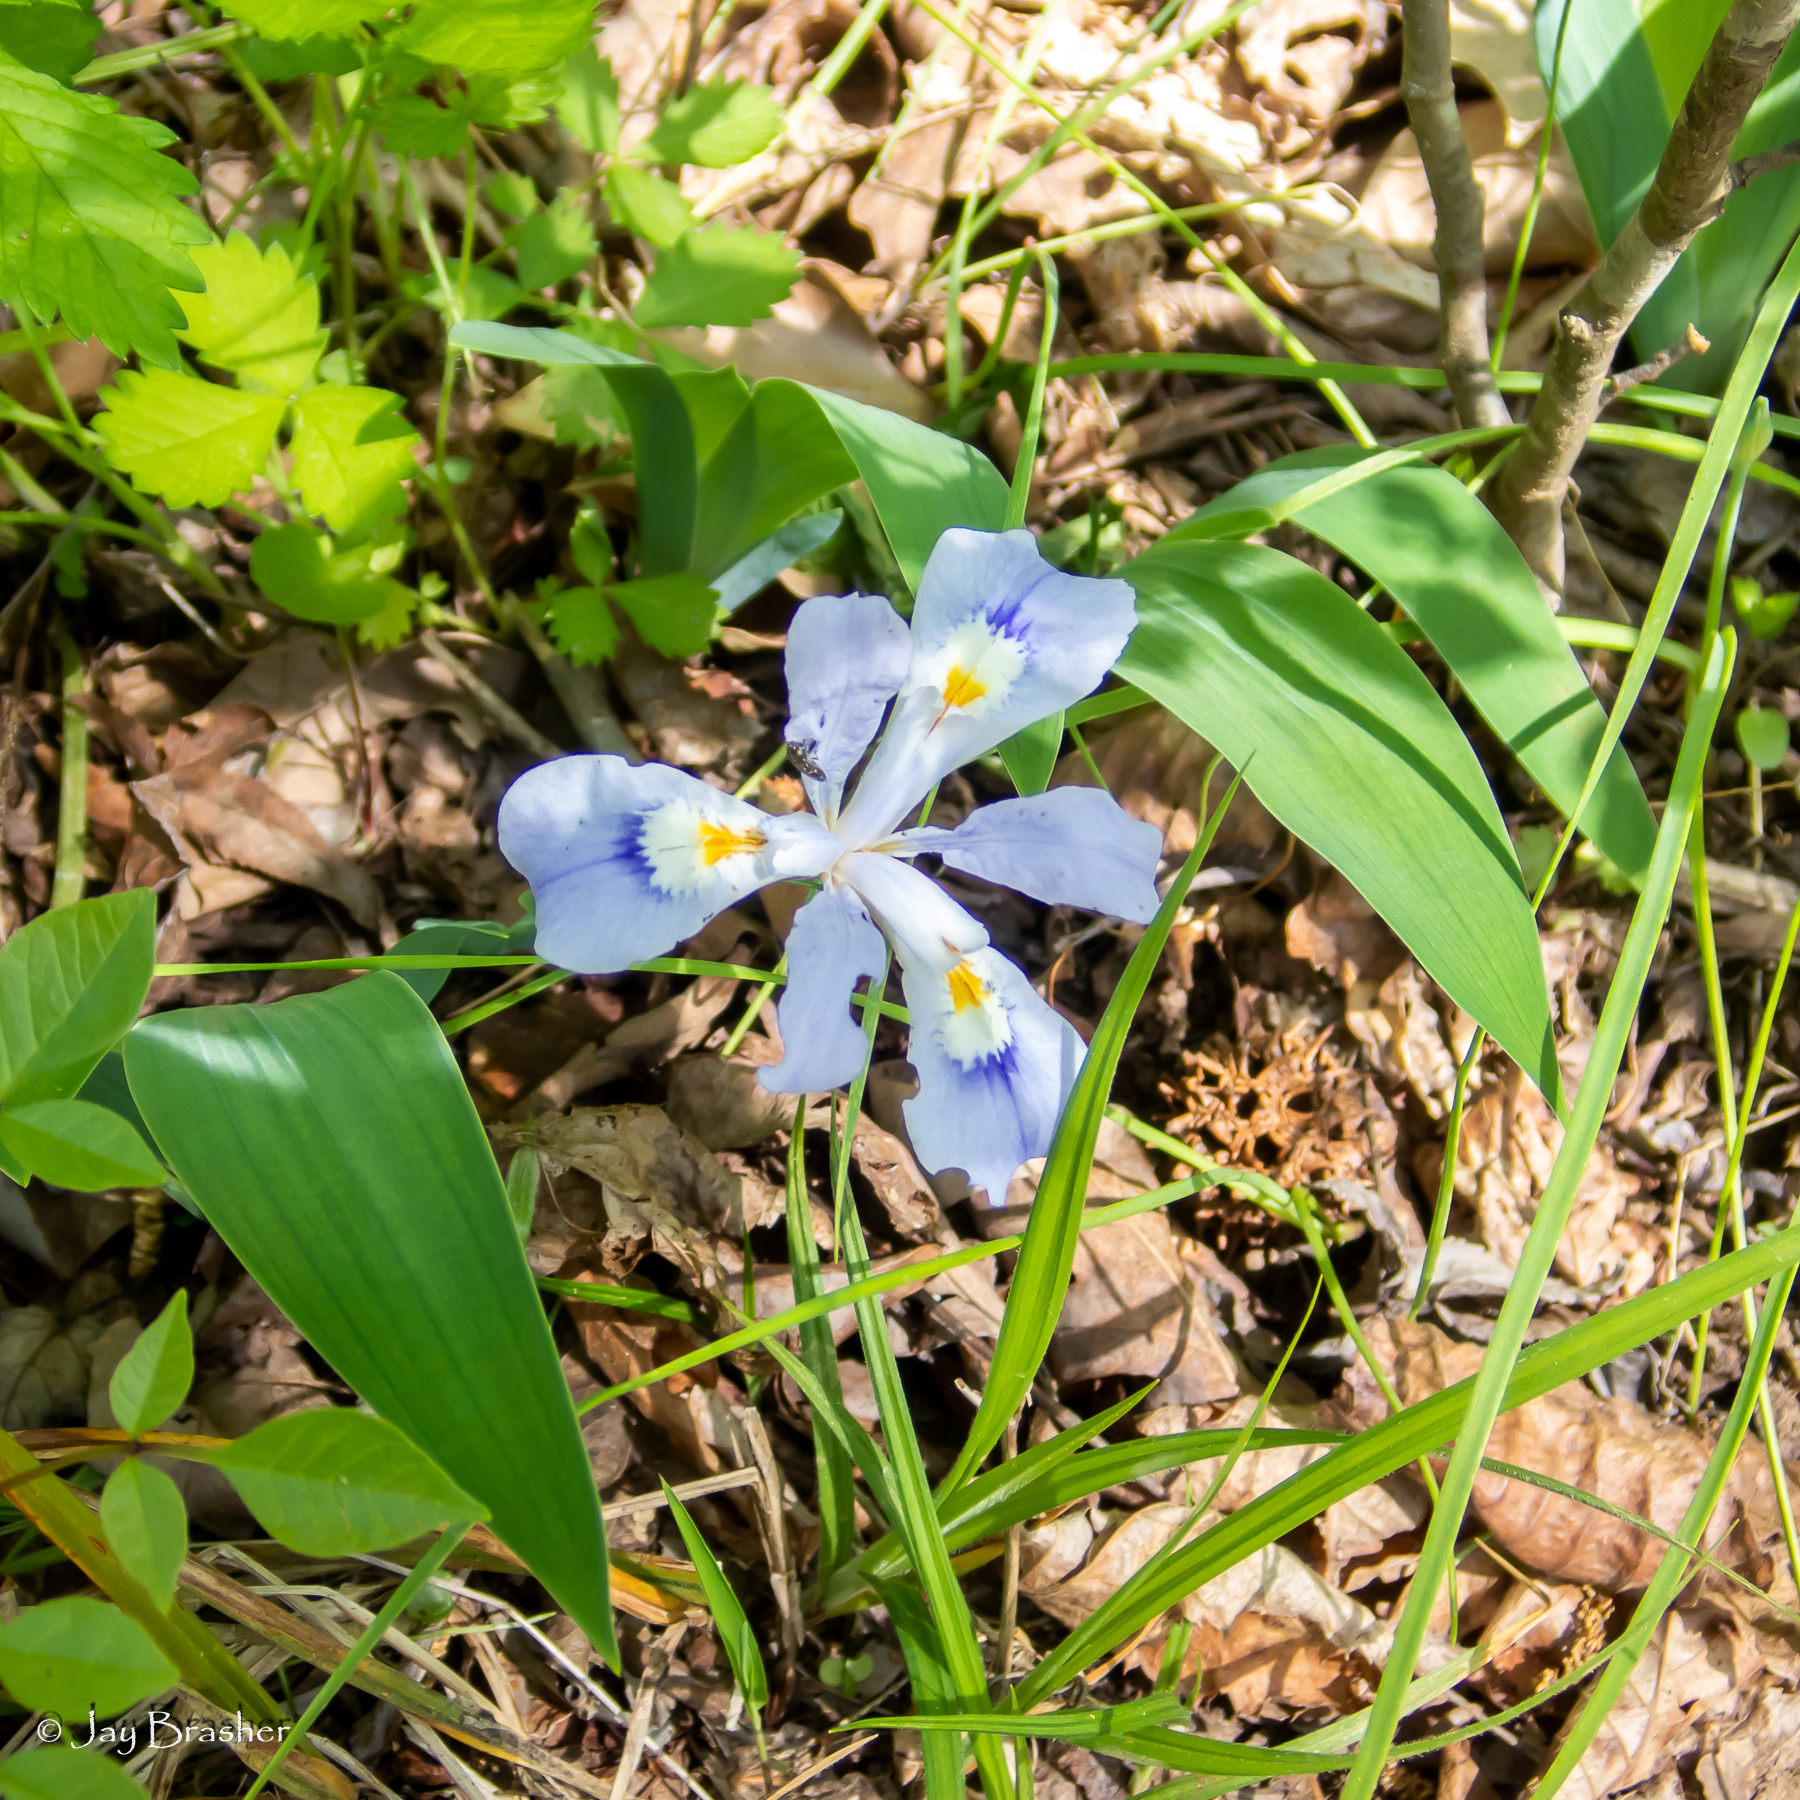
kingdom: Plantae
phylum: Tracheophyta
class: Liliopsida
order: Asparagales
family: Iridaceae
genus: Iris
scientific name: Iris cristata
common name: Crested iris
